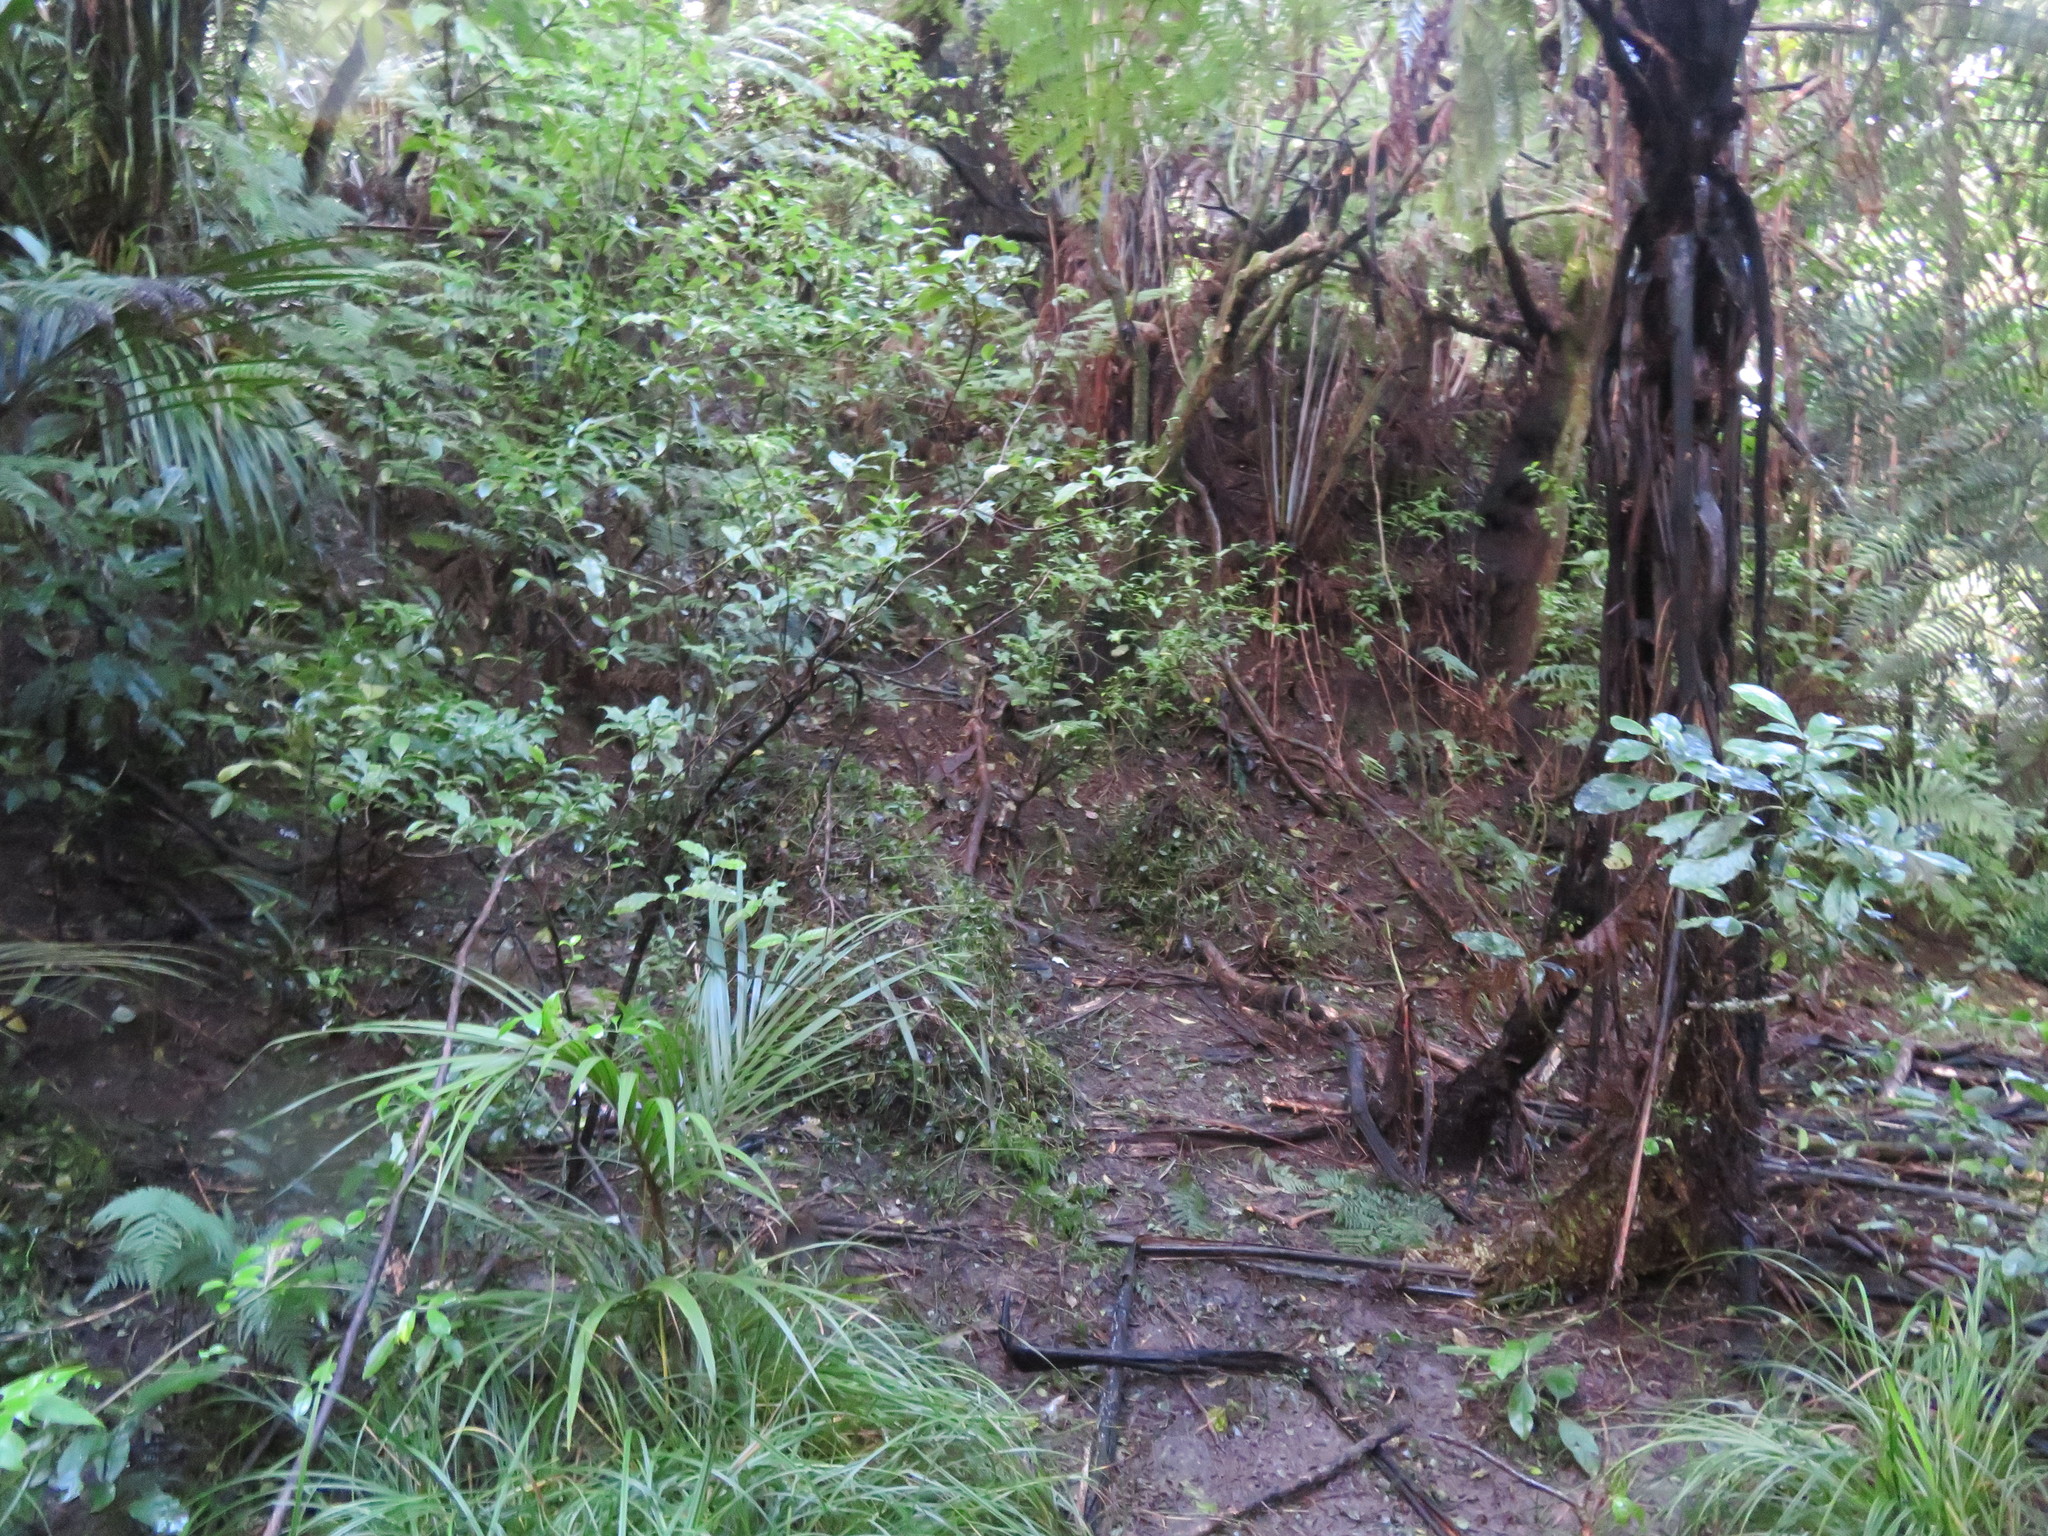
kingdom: Plantae
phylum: Tracheophyta
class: Liliopsida
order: Commelinales
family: Commelinaceae
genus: Tradescantia
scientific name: Tradescantia fluminensis
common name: Wandering-jew
